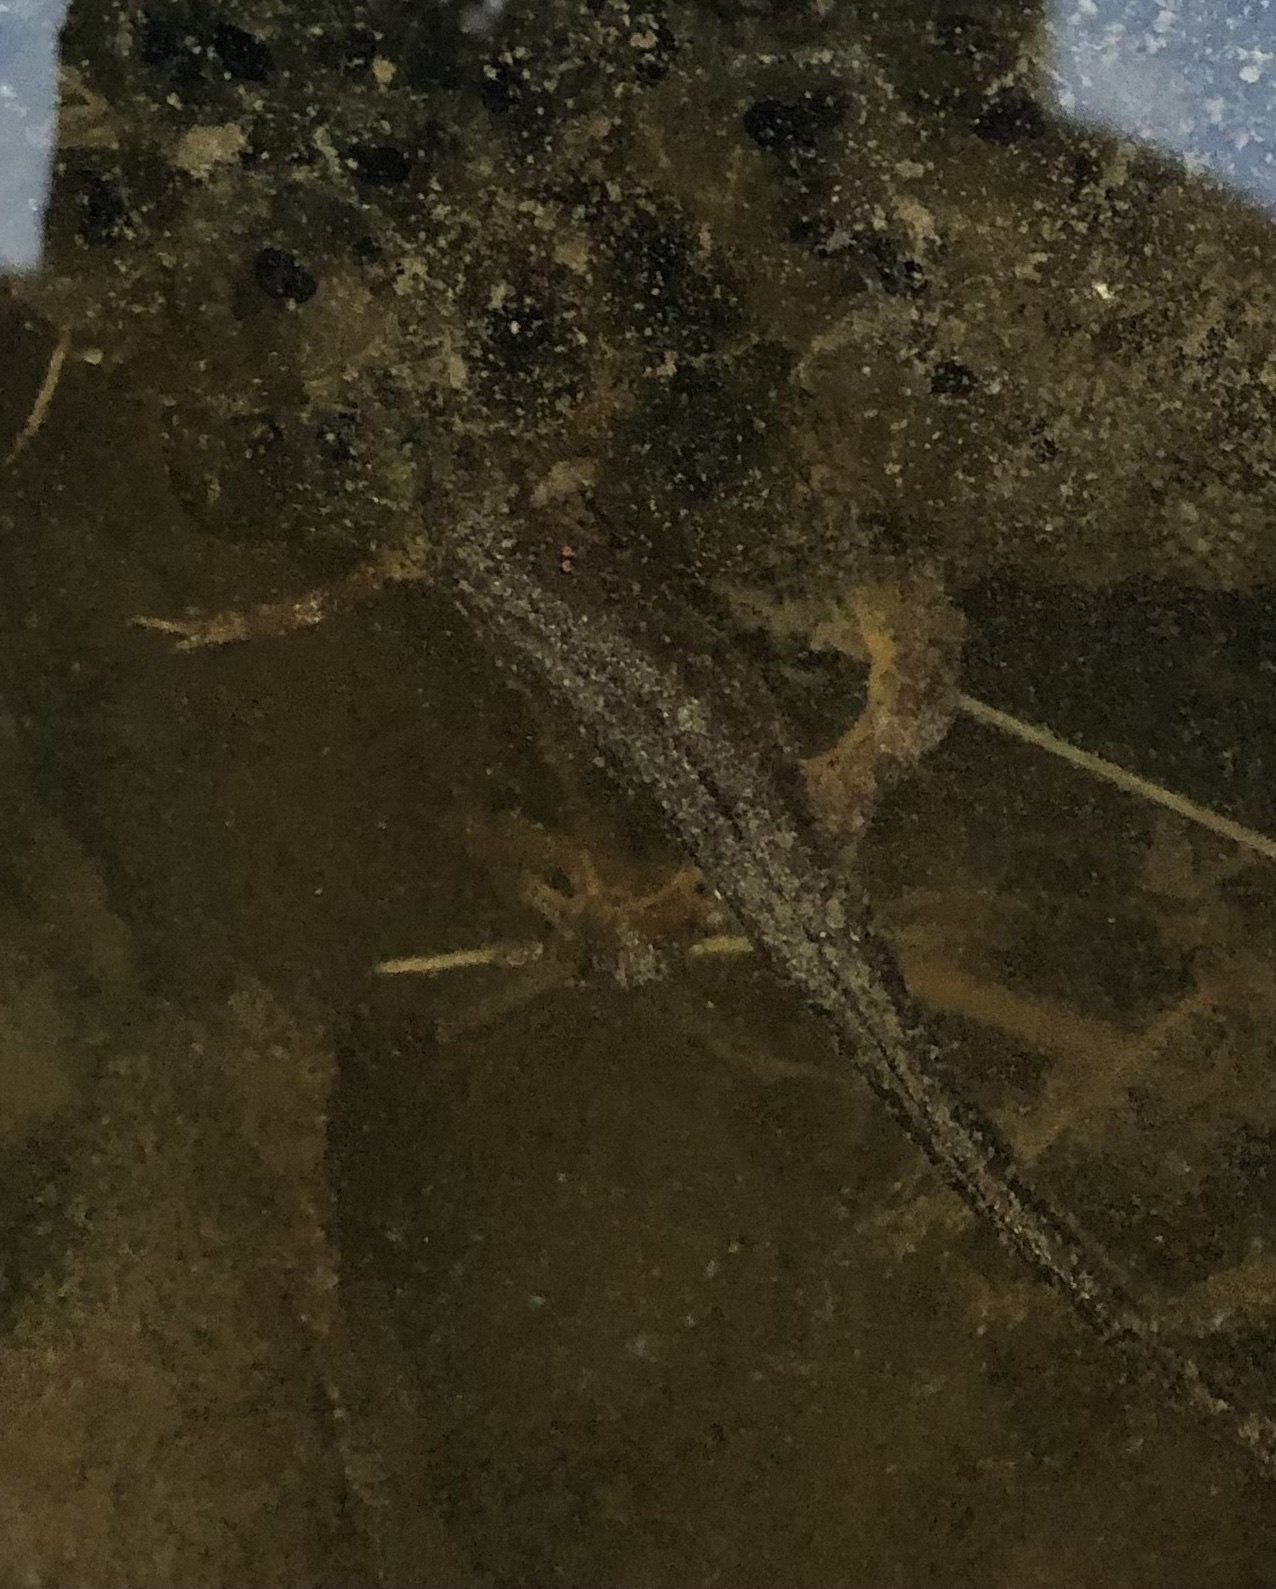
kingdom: Animalia
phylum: Chordata
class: Amphibia
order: Caudata
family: Salamandridae
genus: Notophthalmus
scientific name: Notophthalmus viridescens
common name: Eastern newt
